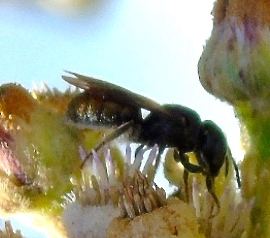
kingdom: Animalia
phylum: Arthropoda
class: Insecta
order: Hymenoptera
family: Apidae
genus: Ceratina
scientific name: Ceratina
